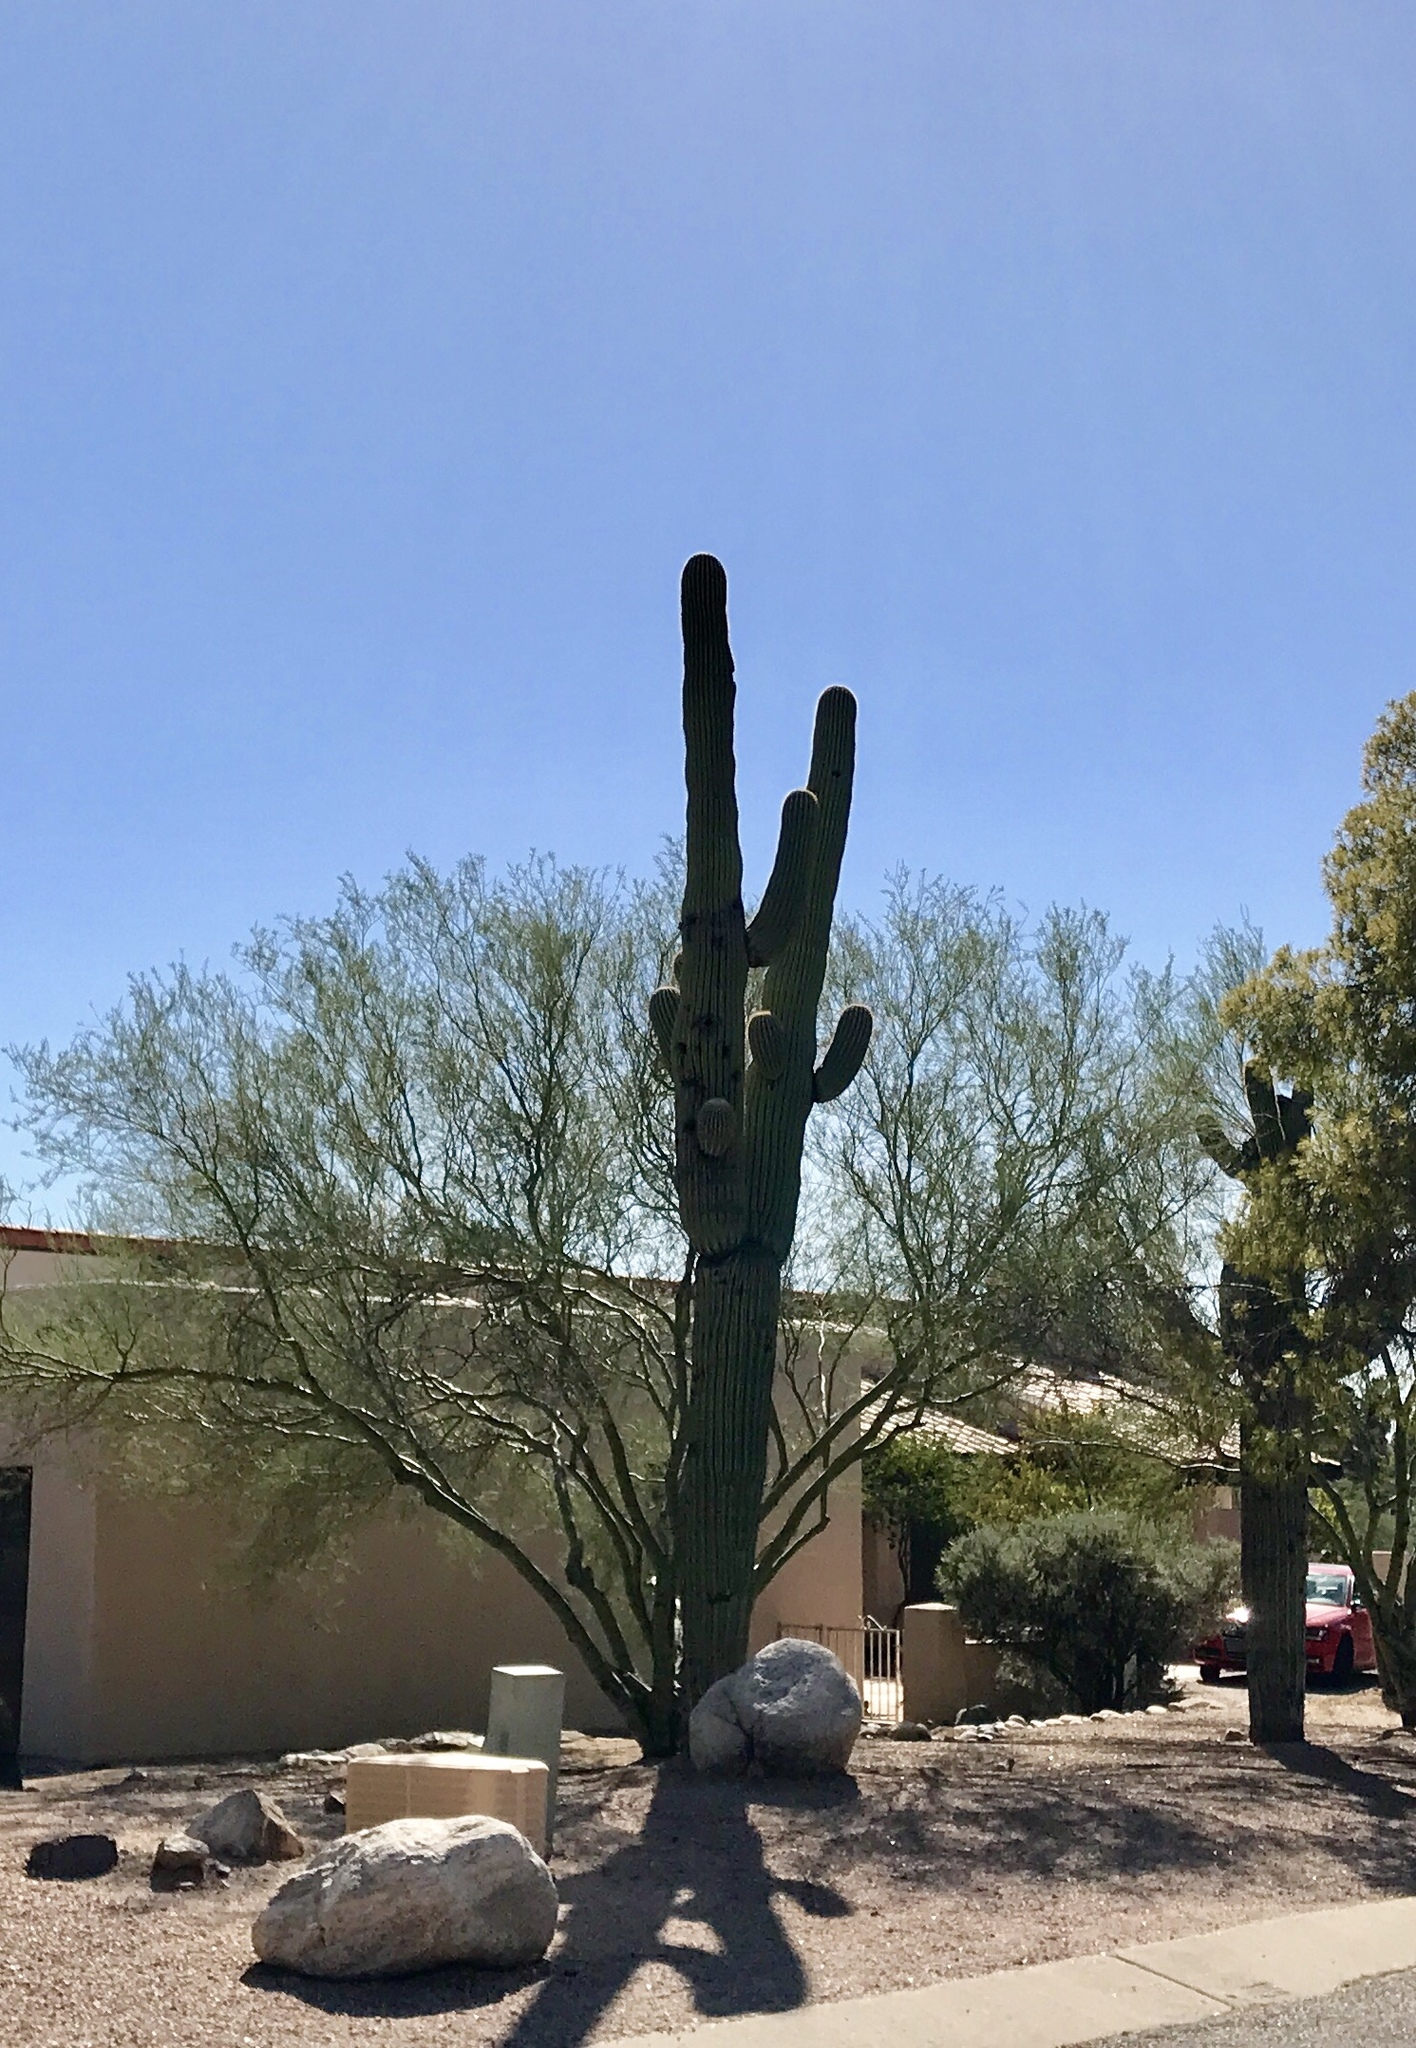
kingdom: Plantae
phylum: Tracheophyta
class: Magnoliopsida
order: Caryophyllales
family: Cactaceae
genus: Carnegiea
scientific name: Carnegiea gigantea
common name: Saguaro
